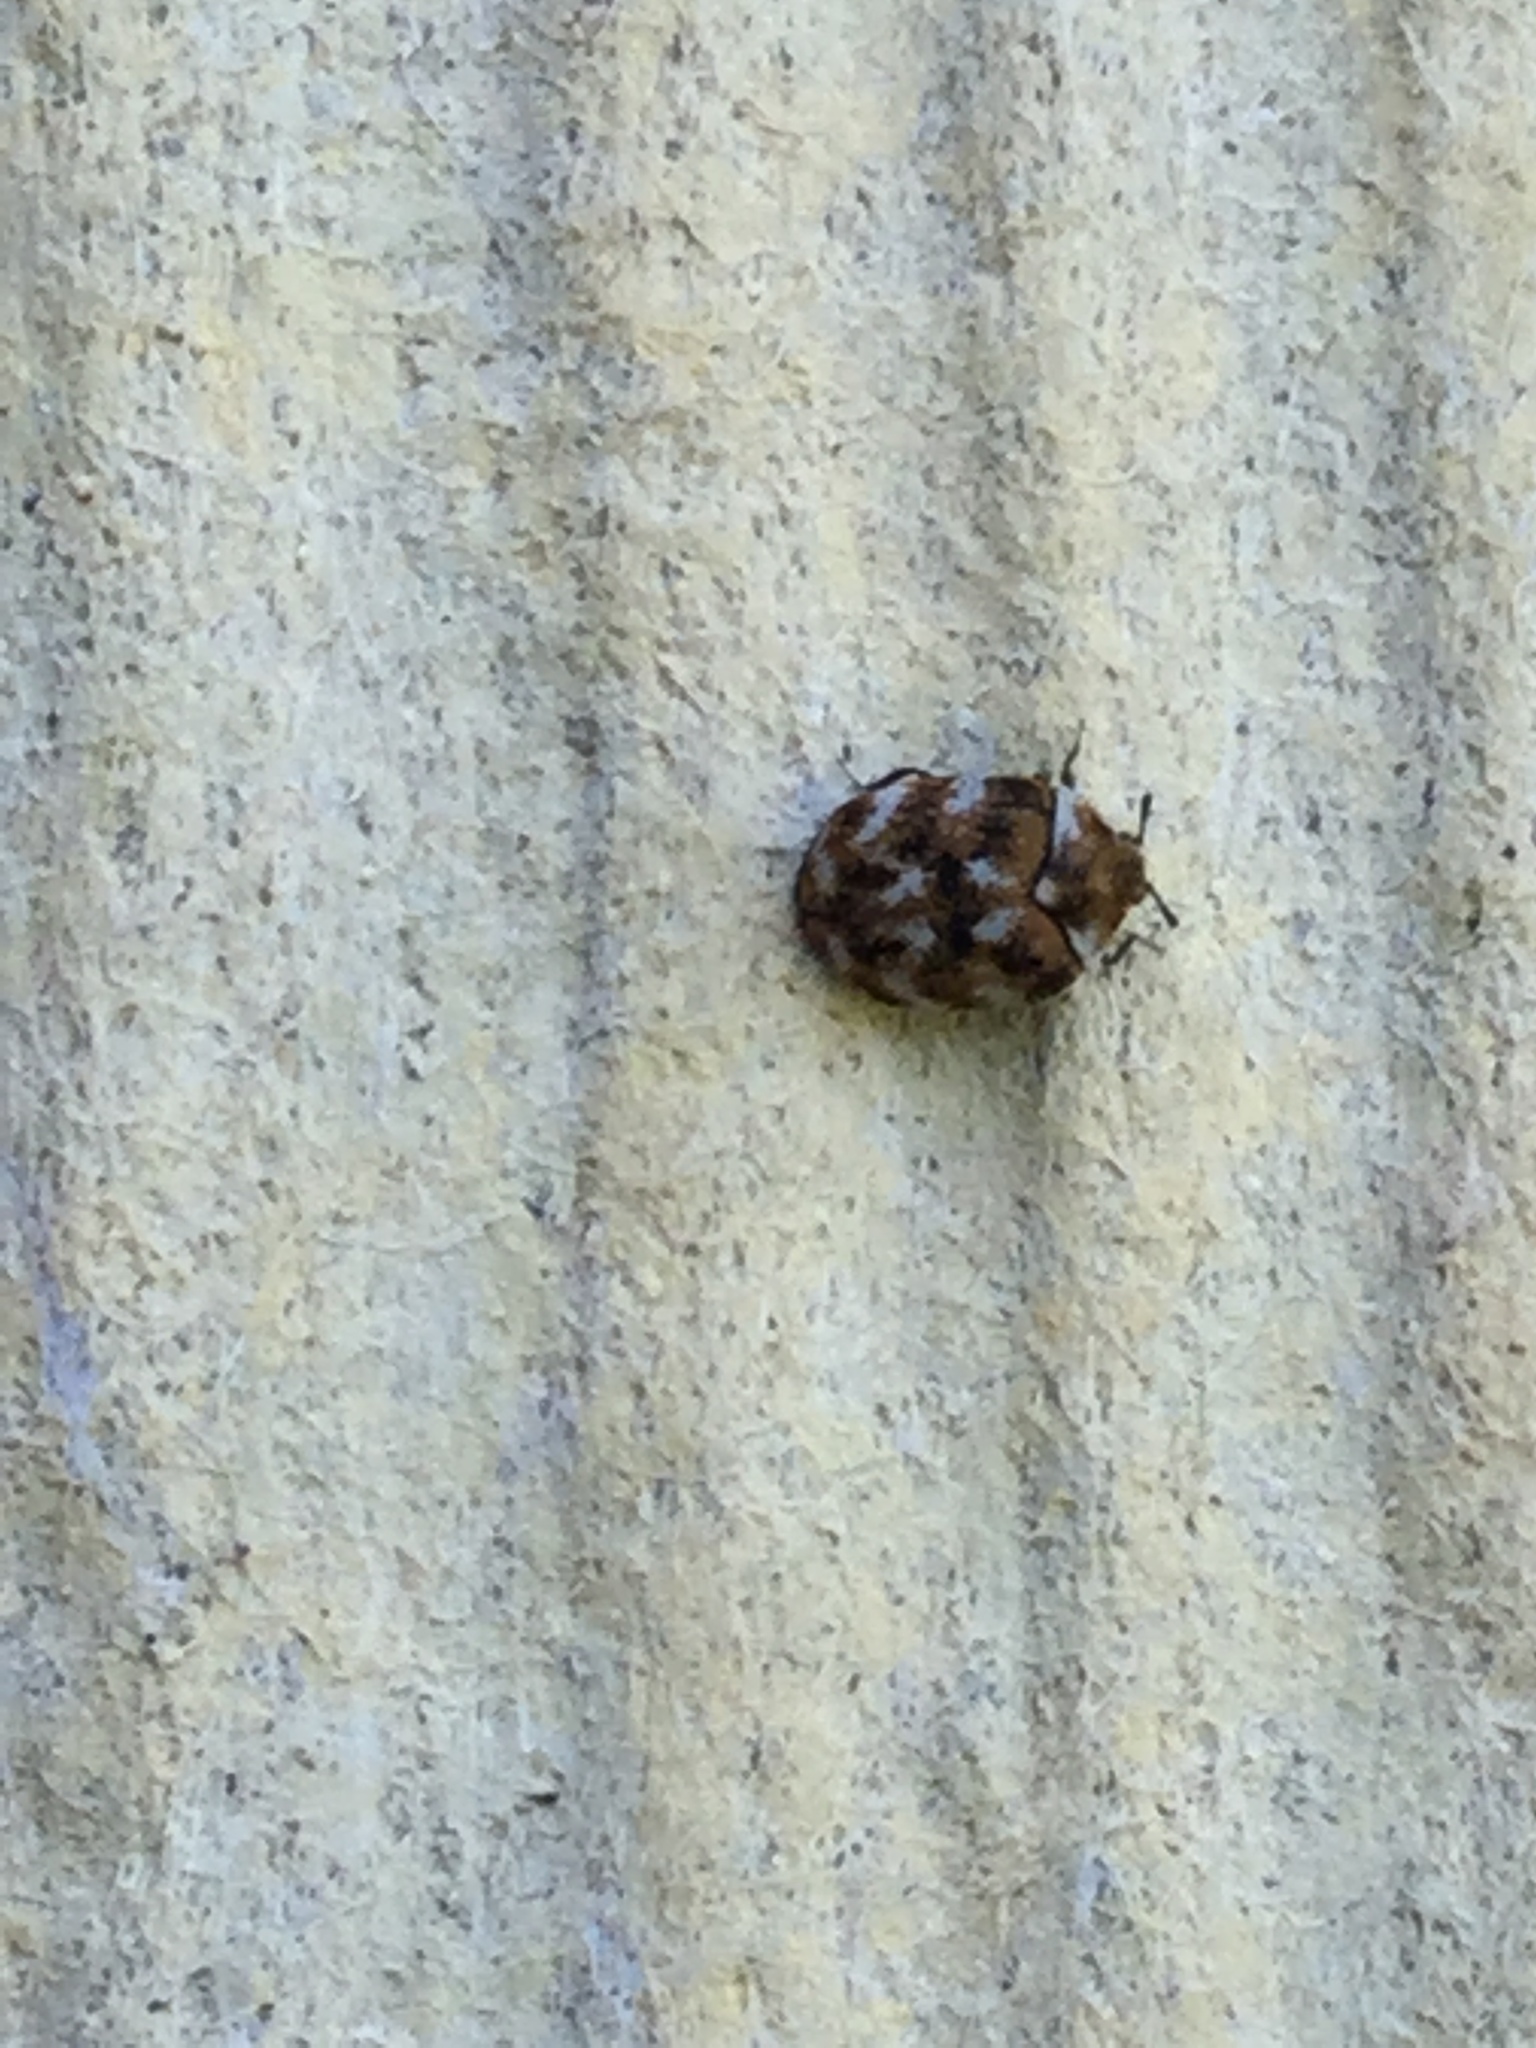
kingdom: Animalia
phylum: Arthropoda
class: Insecta
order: Coleoptera
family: Dermestidae
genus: Anthrenus
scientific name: Anthrenus verbasci
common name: Varied carpet beetle
